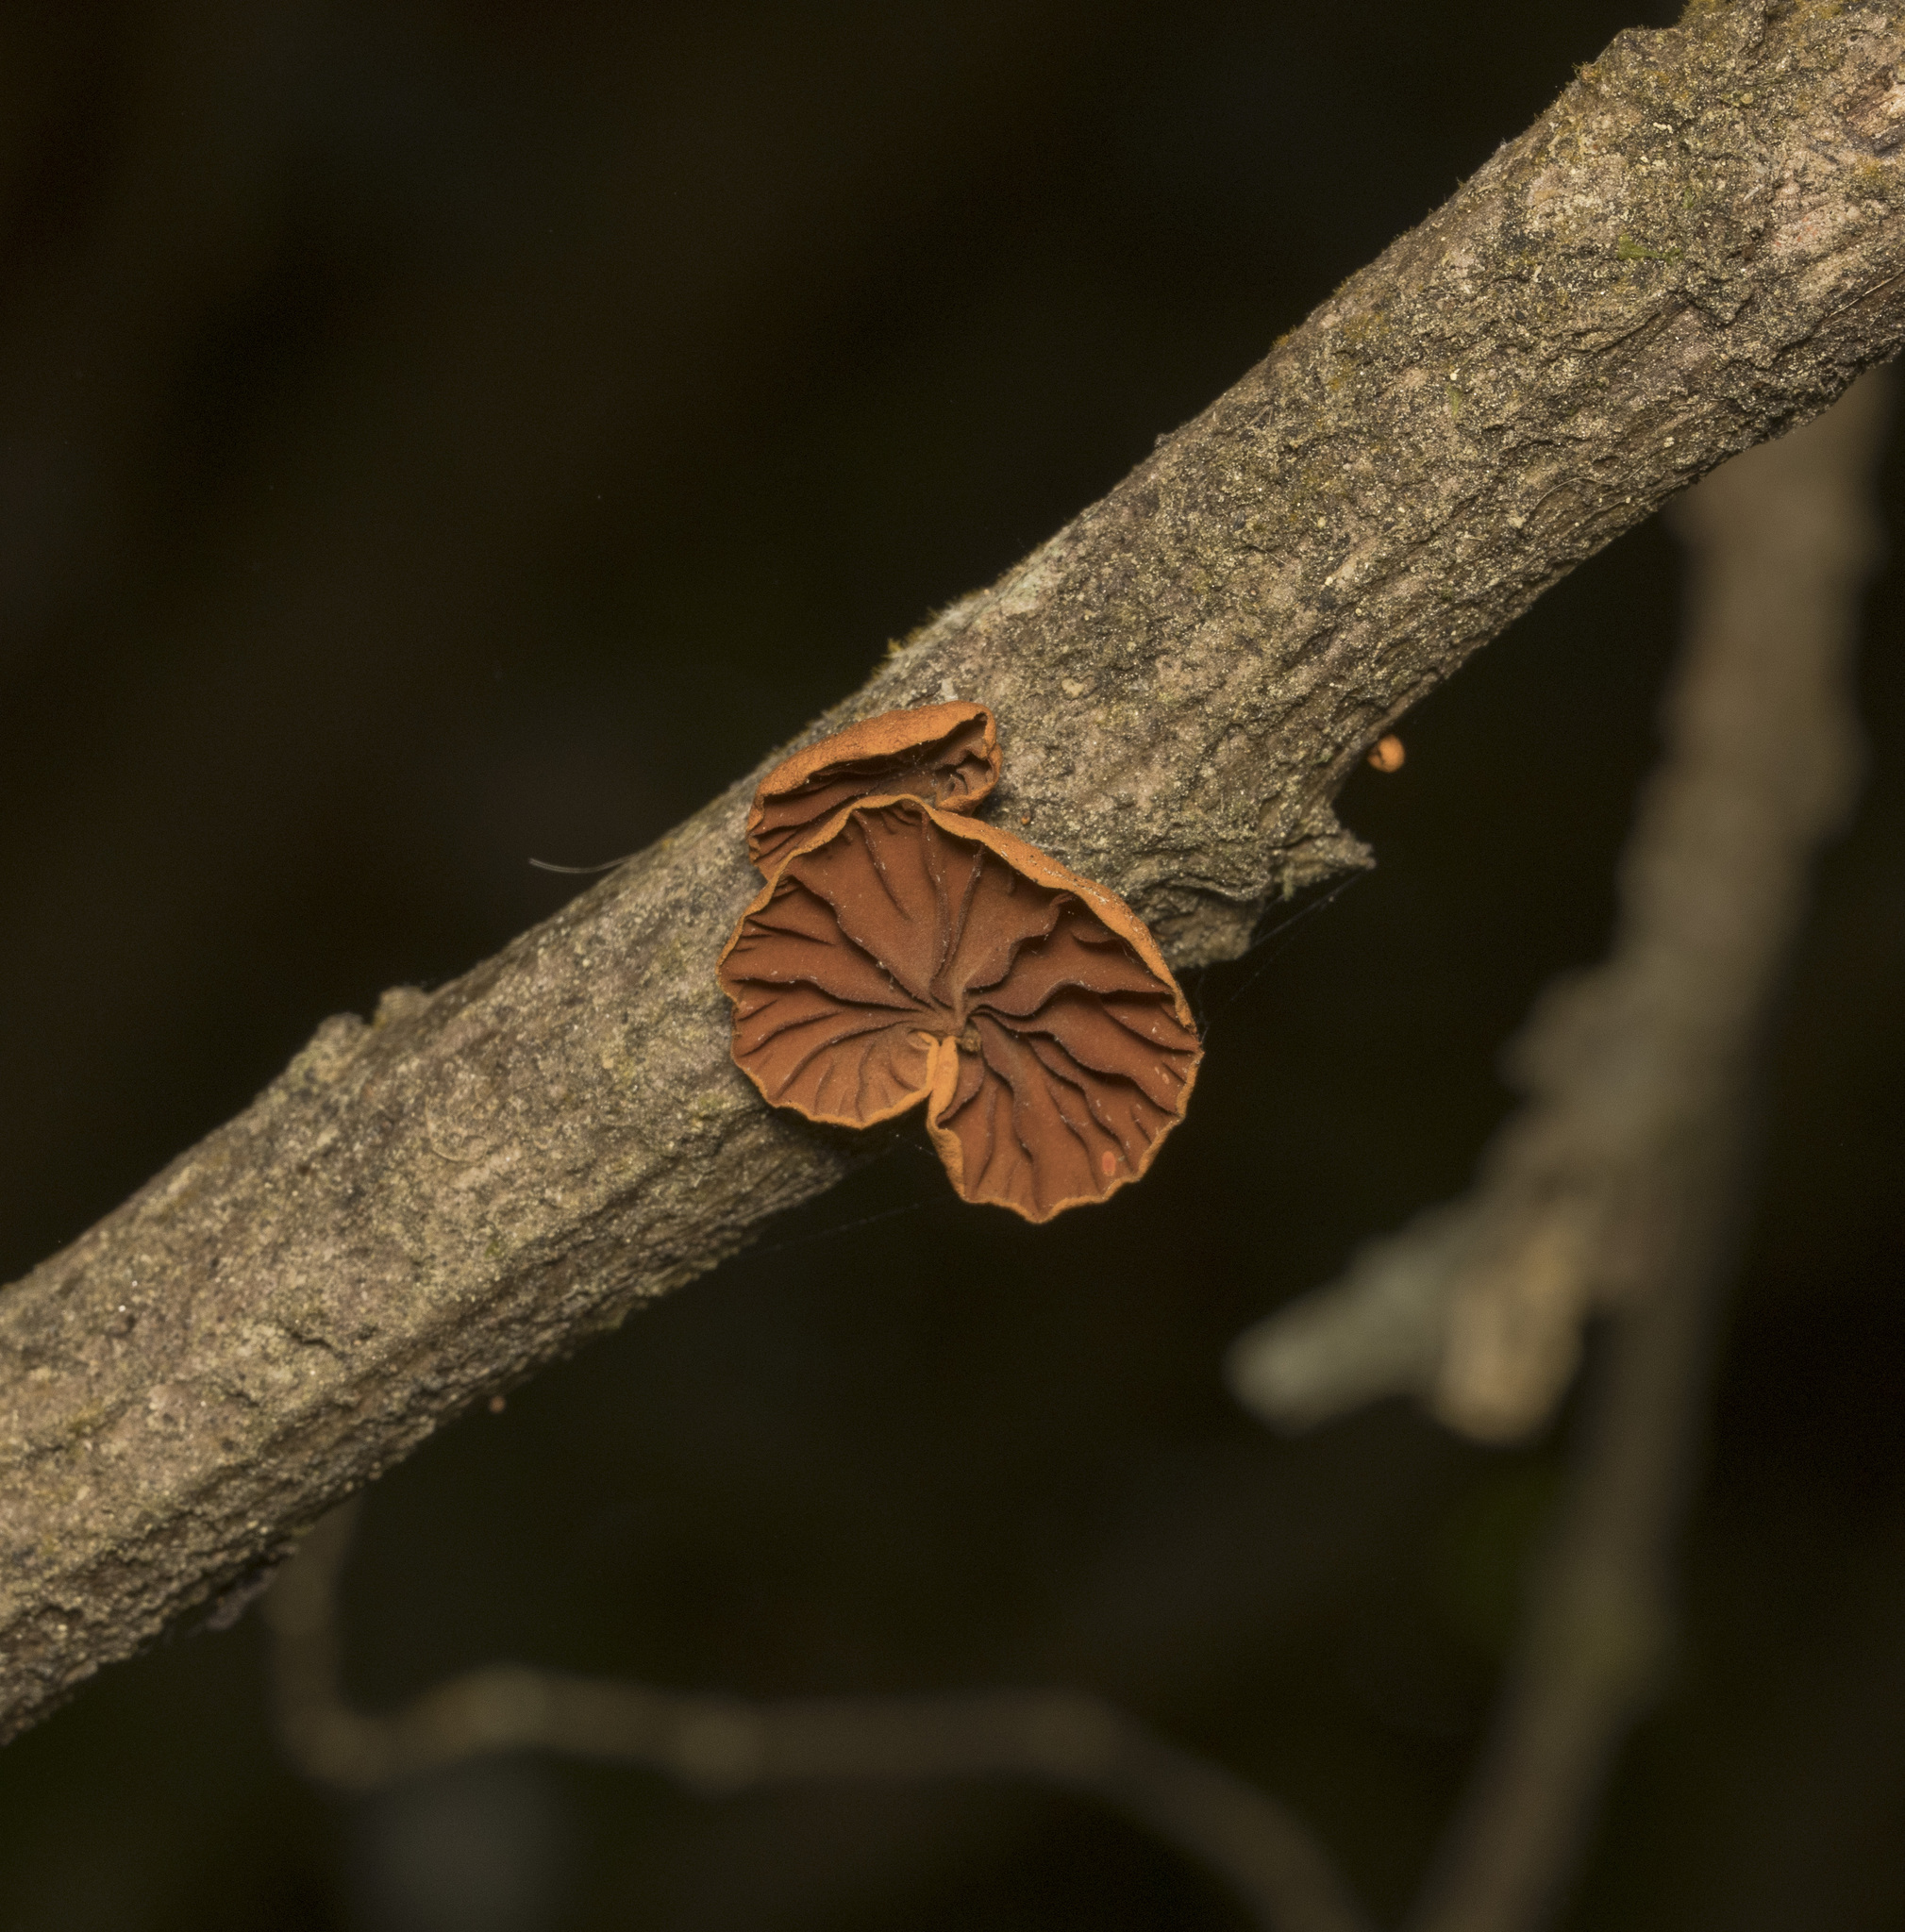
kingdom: Fungi
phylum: Basidiomycota
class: Agaricomycetes
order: Agaricales
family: Omphalotaceae
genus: Anthracophyllum
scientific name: Anthracophyllum discolor
